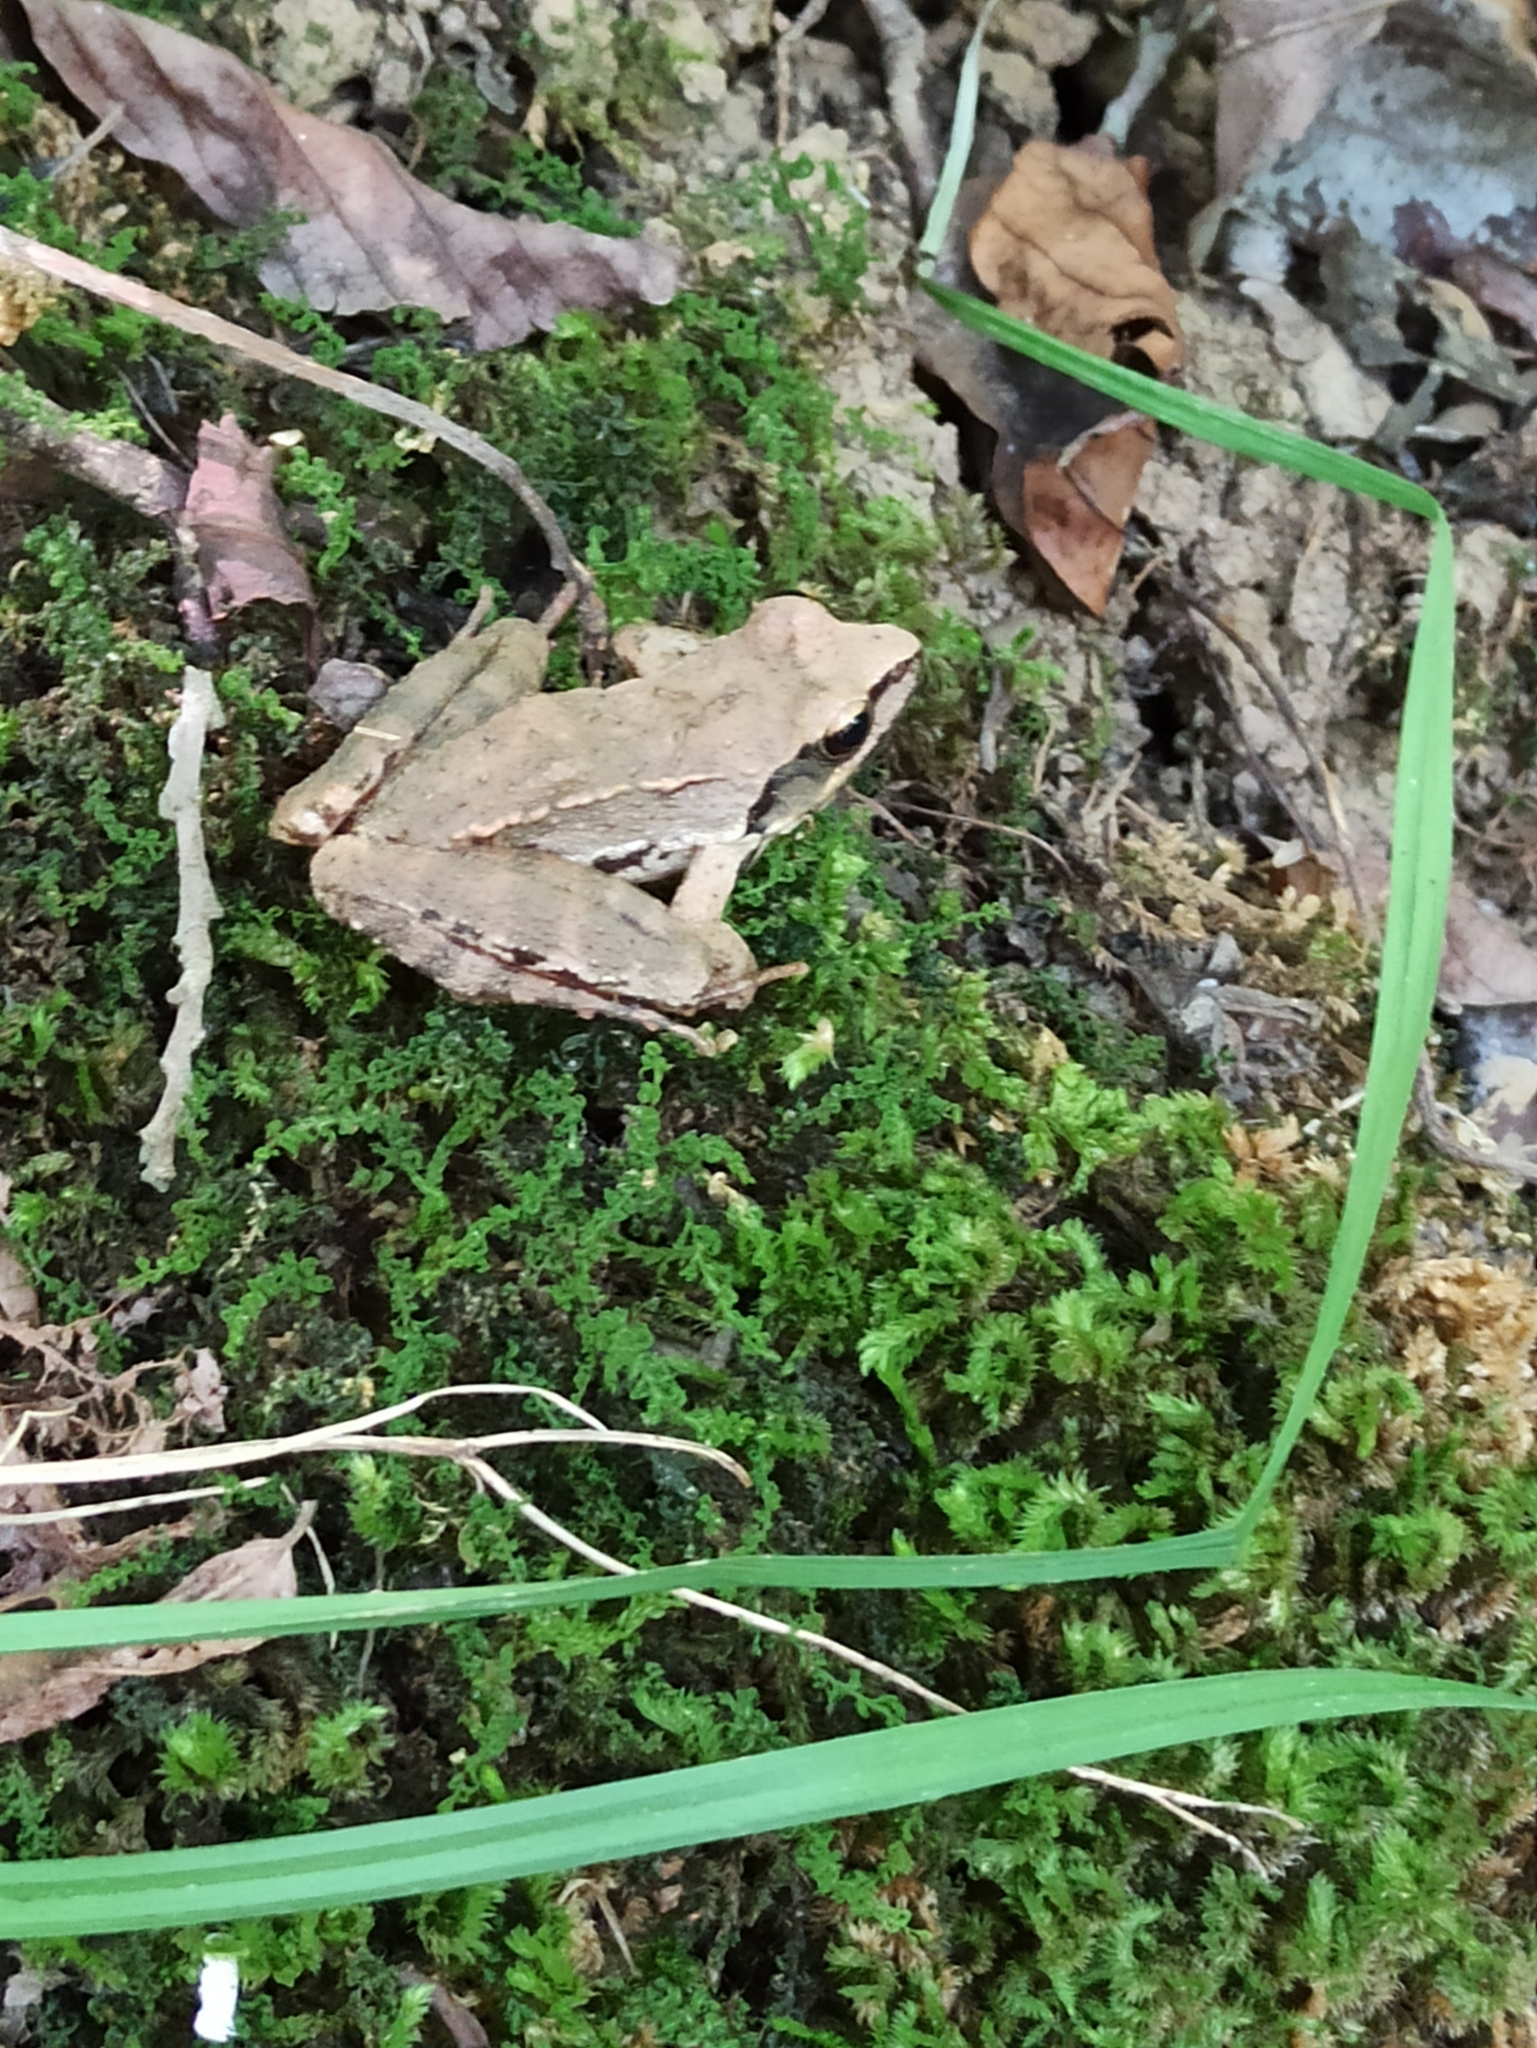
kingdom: Animalia
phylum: Chordata
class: Amphibia
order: Anura
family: Ranidae
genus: Rana
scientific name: Rana pseudodalmatina
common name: Hyrcanian frog
